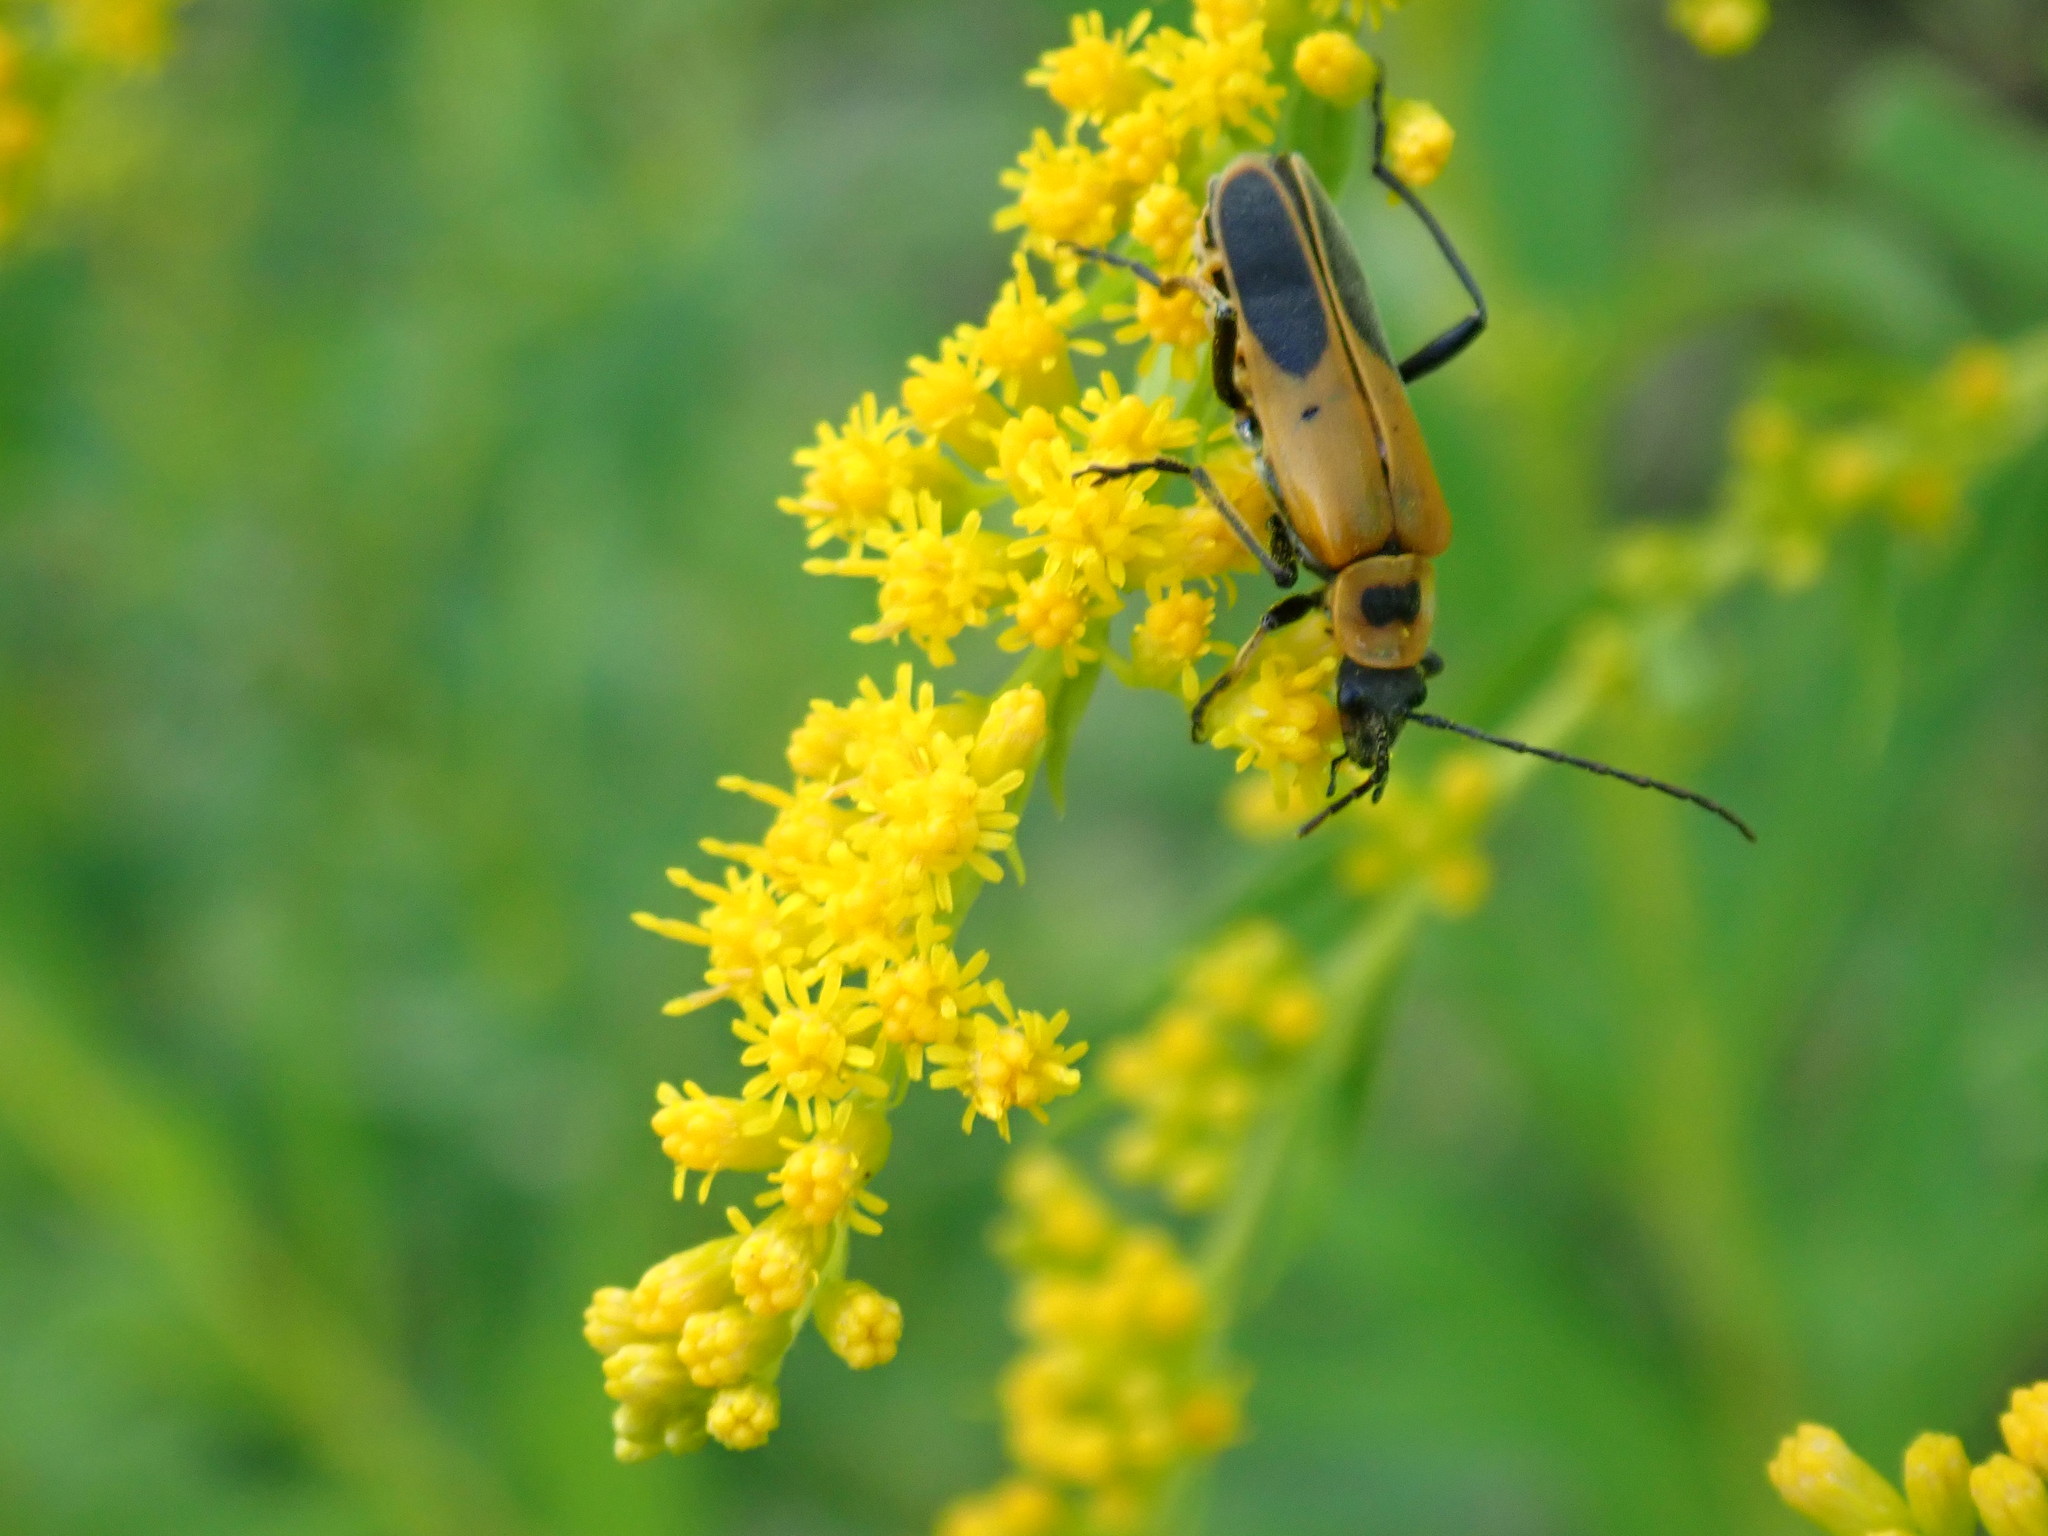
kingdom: Animalia
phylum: Arthropoda
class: Insecta
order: Coleoptera
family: Cantharidae
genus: Chauliognathus
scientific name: Chauliognathus pensylvanicus
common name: Goldenrod soldier beetle
